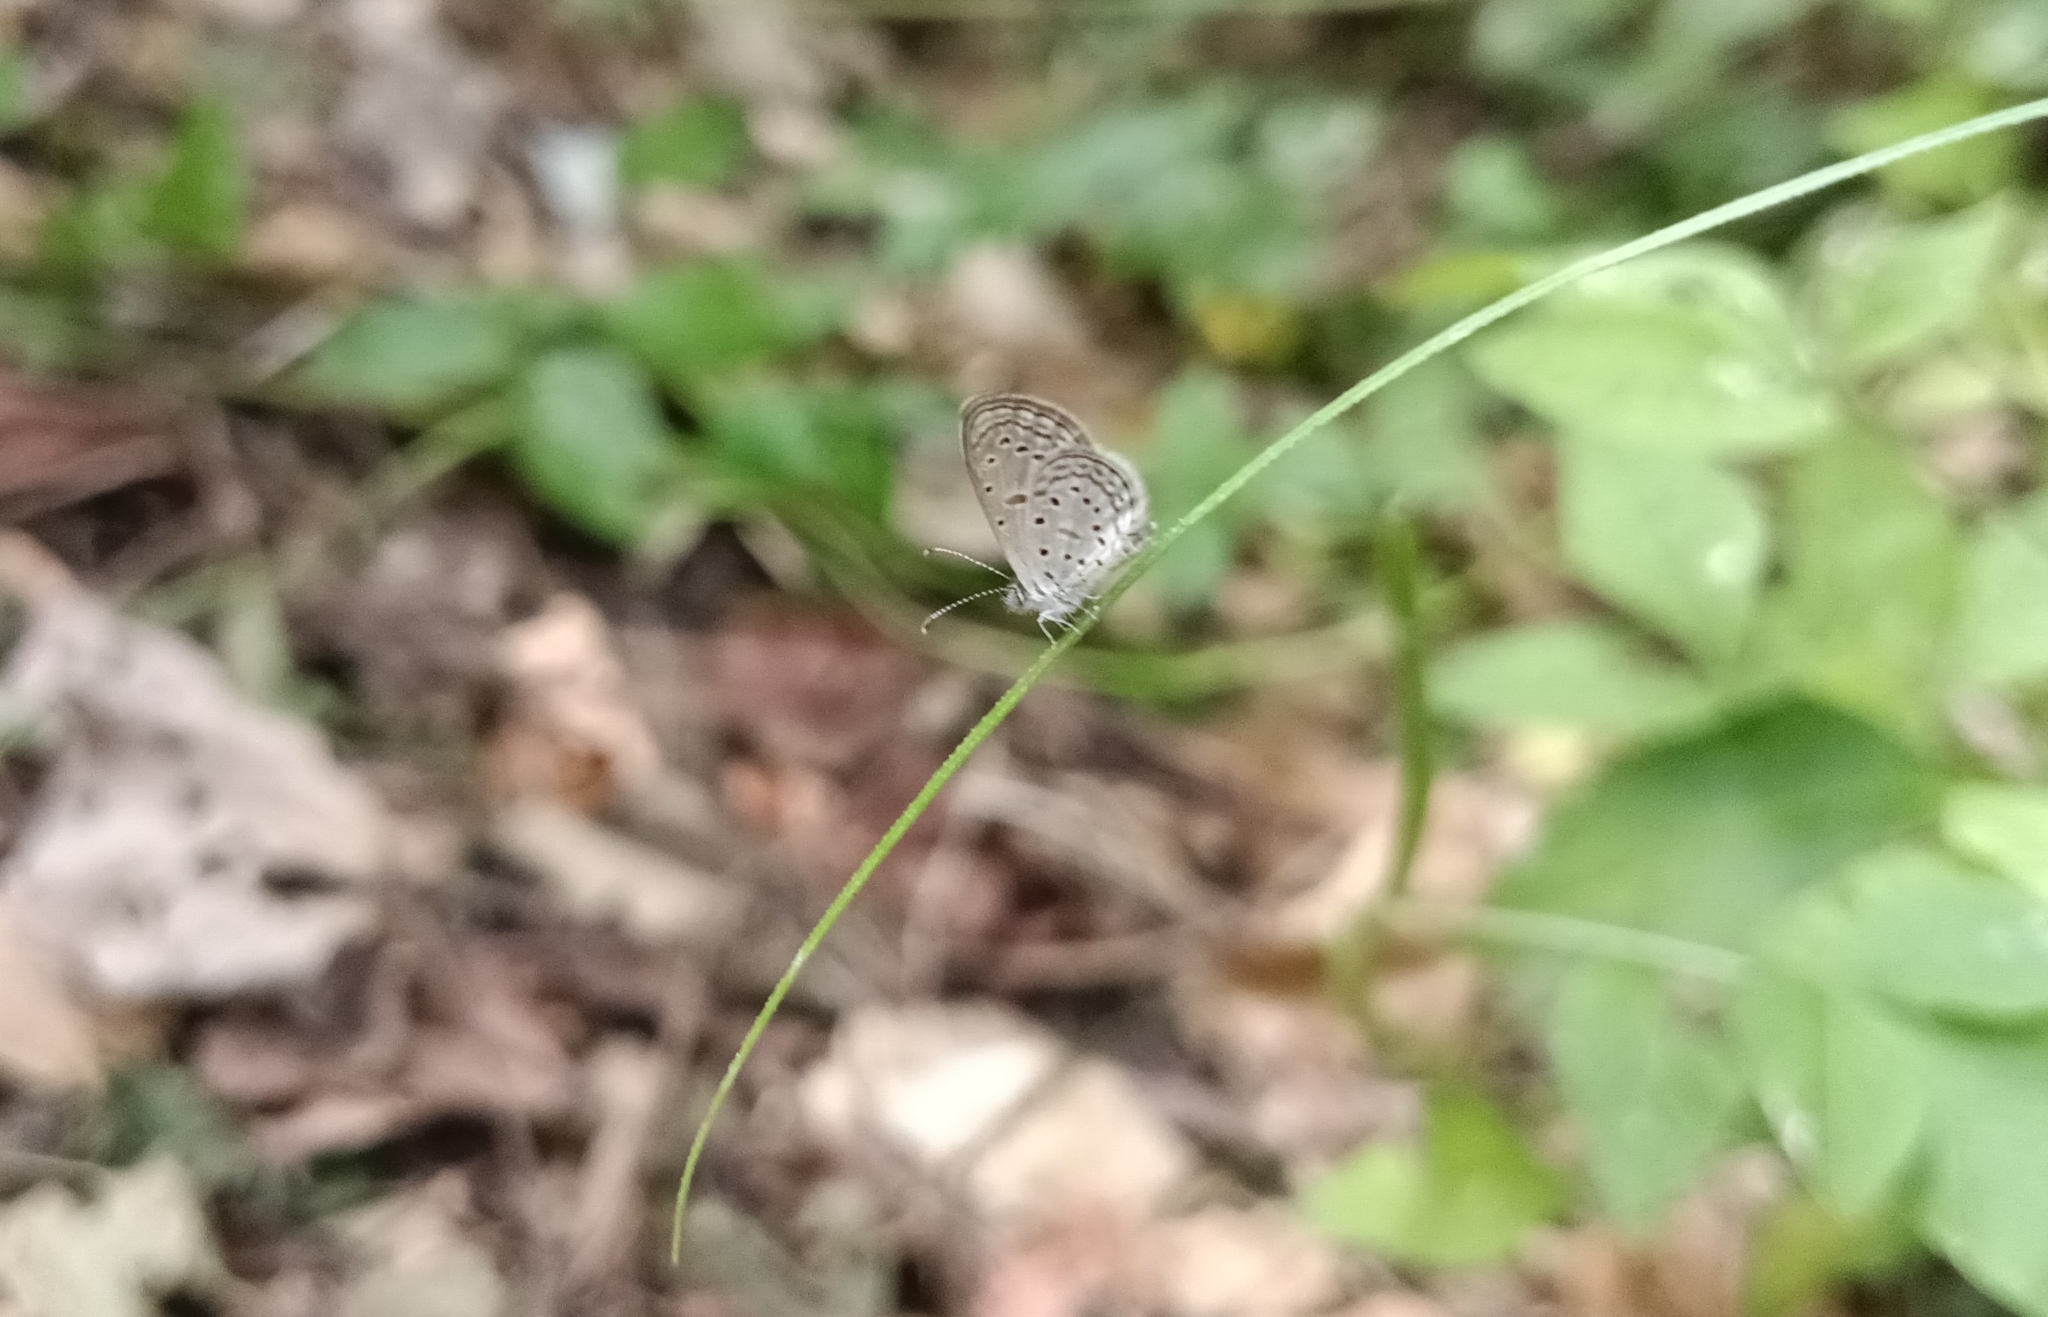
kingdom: Animalia
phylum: Arthropoda
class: Insecta
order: Lepidoptera
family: Lycaenidae
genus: Zizula
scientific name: Zizula hylax
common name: Gaika blue
